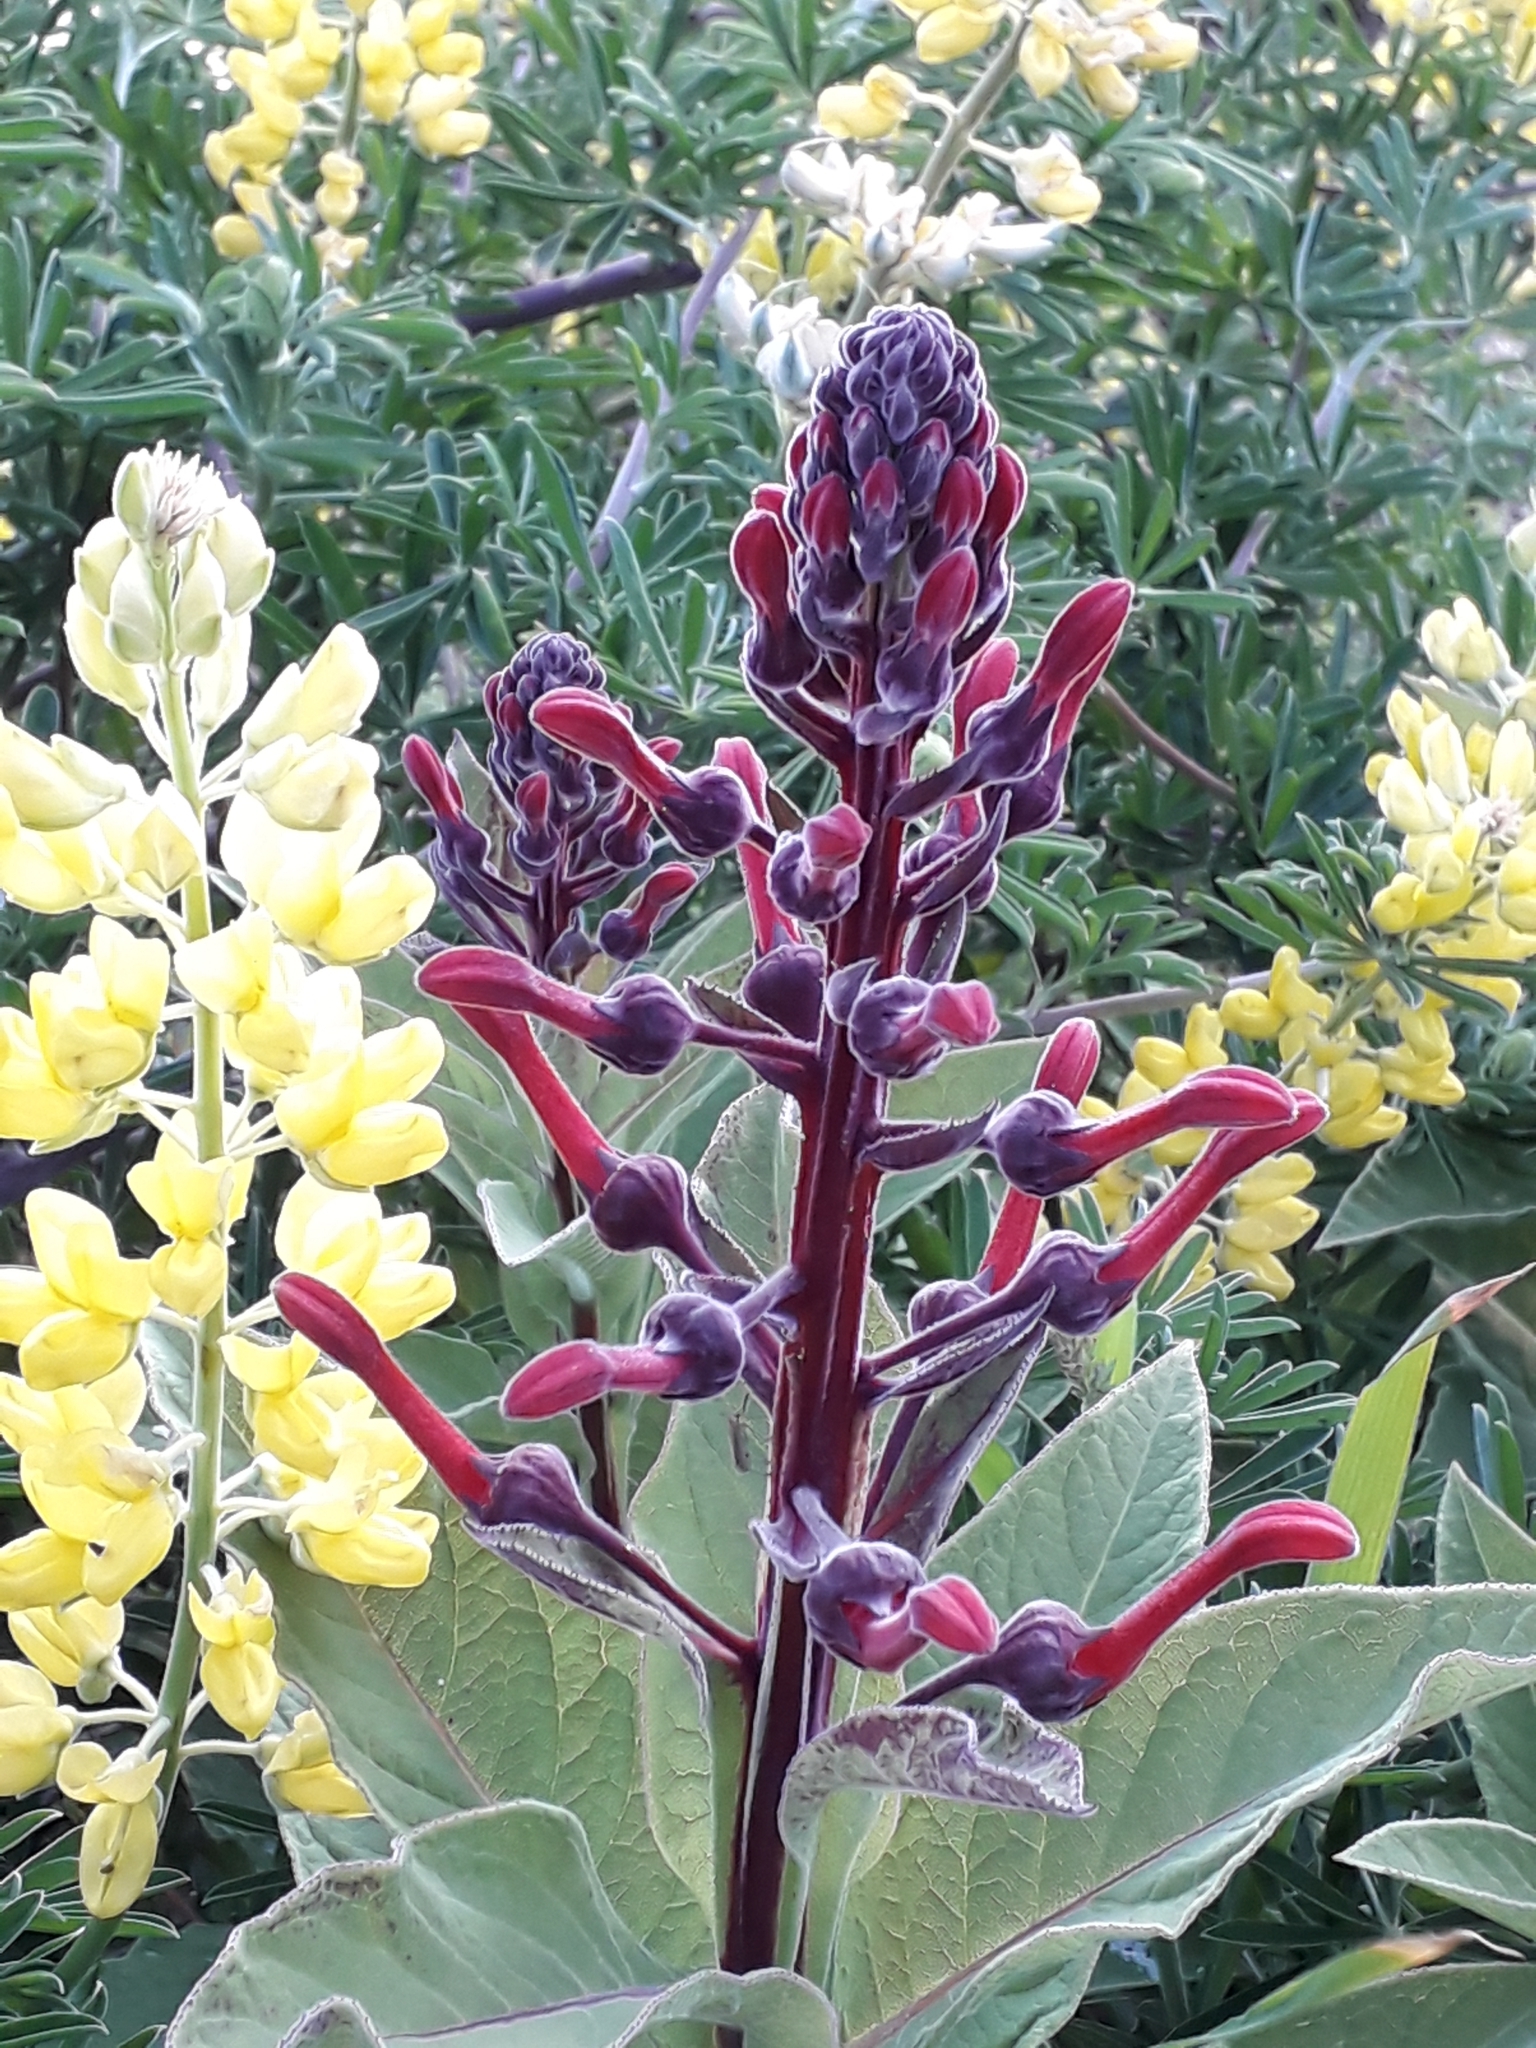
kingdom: Plantae
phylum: Tracheophyta
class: Magnoliopsida
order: Asterales
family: Campanulaceae
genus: Lobelia
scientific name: Lobelia tupa
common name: Devil's-tobacco
